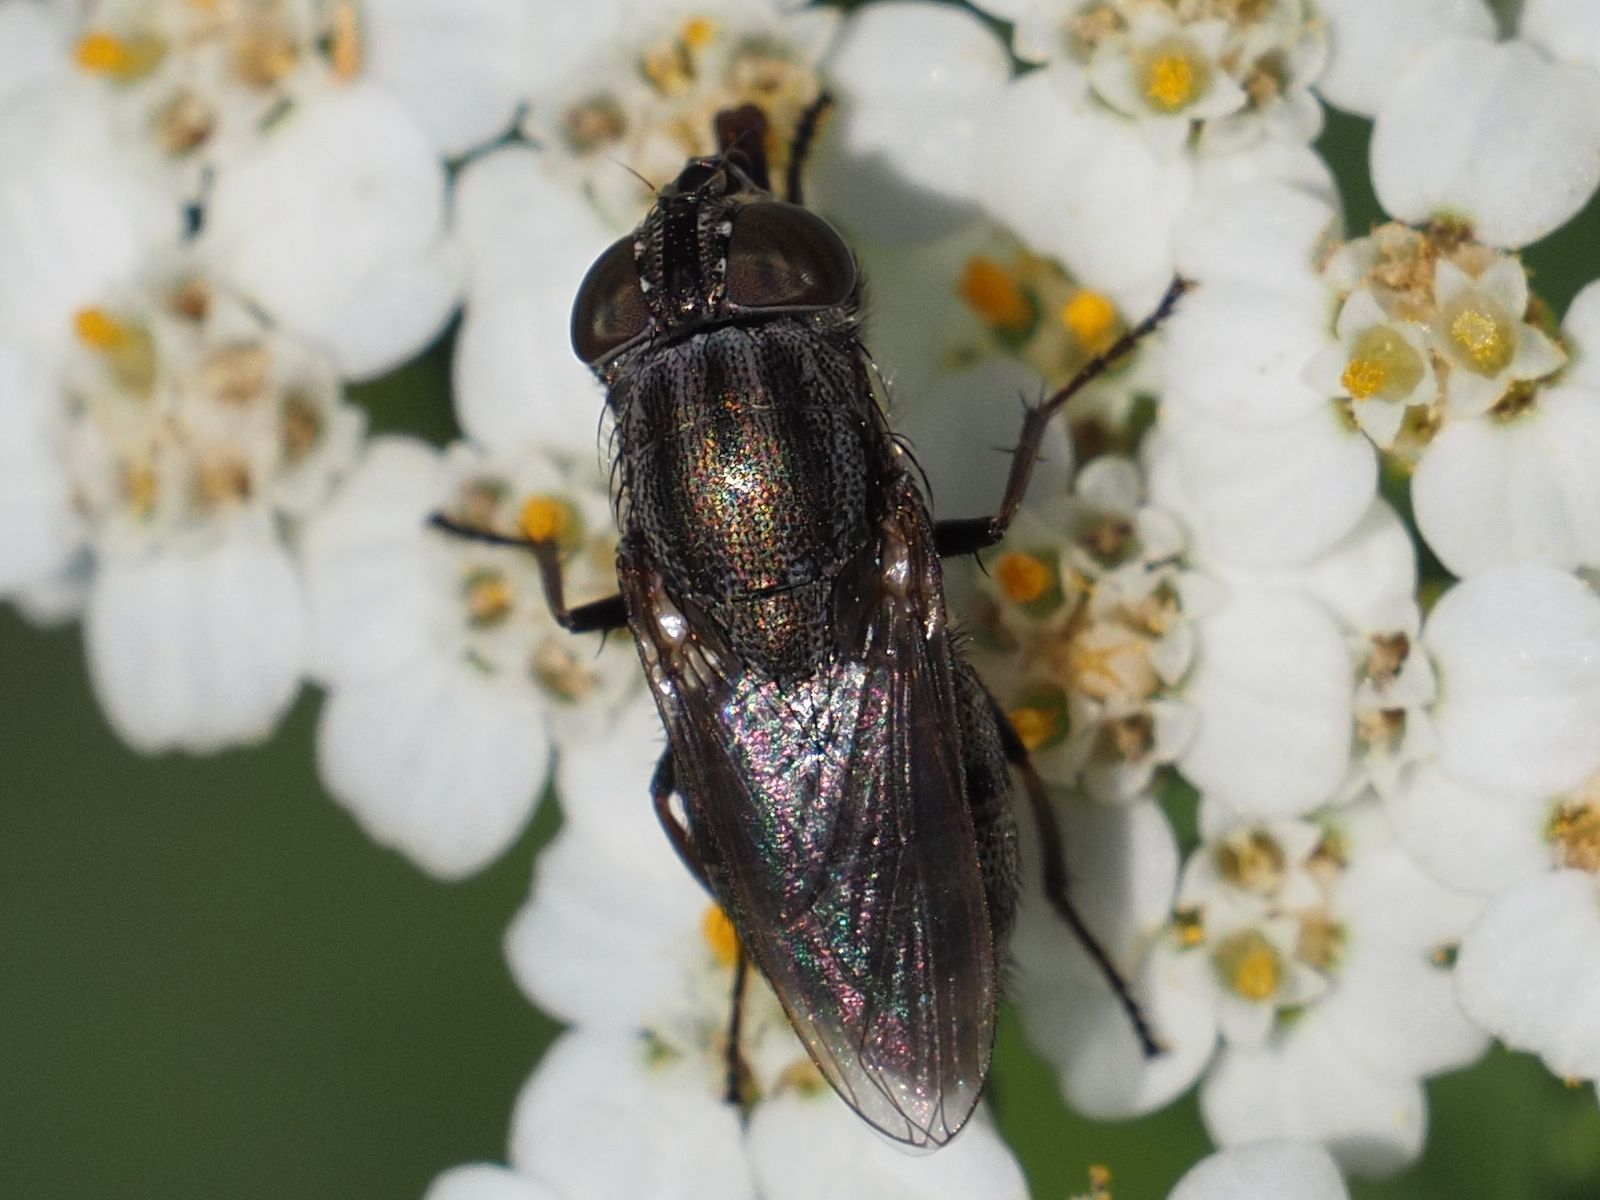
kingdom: Animalia
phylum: Arthropoda
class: Insecta
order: Diptera
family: Calliphoridae
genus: Stomorhina
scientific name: Stomorhina lunata
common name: Locust blowfly
